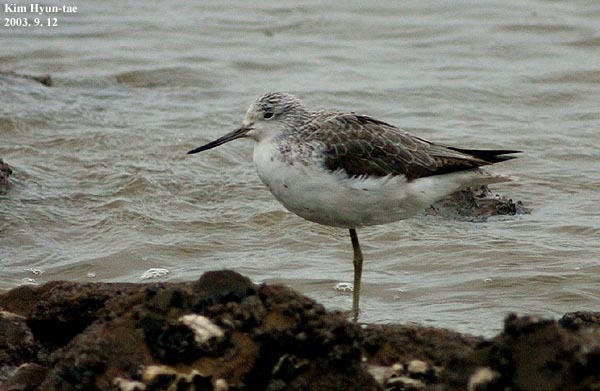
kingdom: Animalia
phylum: Chordata
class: Aves
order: Charadriiformes
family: Scolopacidae
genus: Tringa
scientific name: Tringa nebularia
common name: Common greenshank
